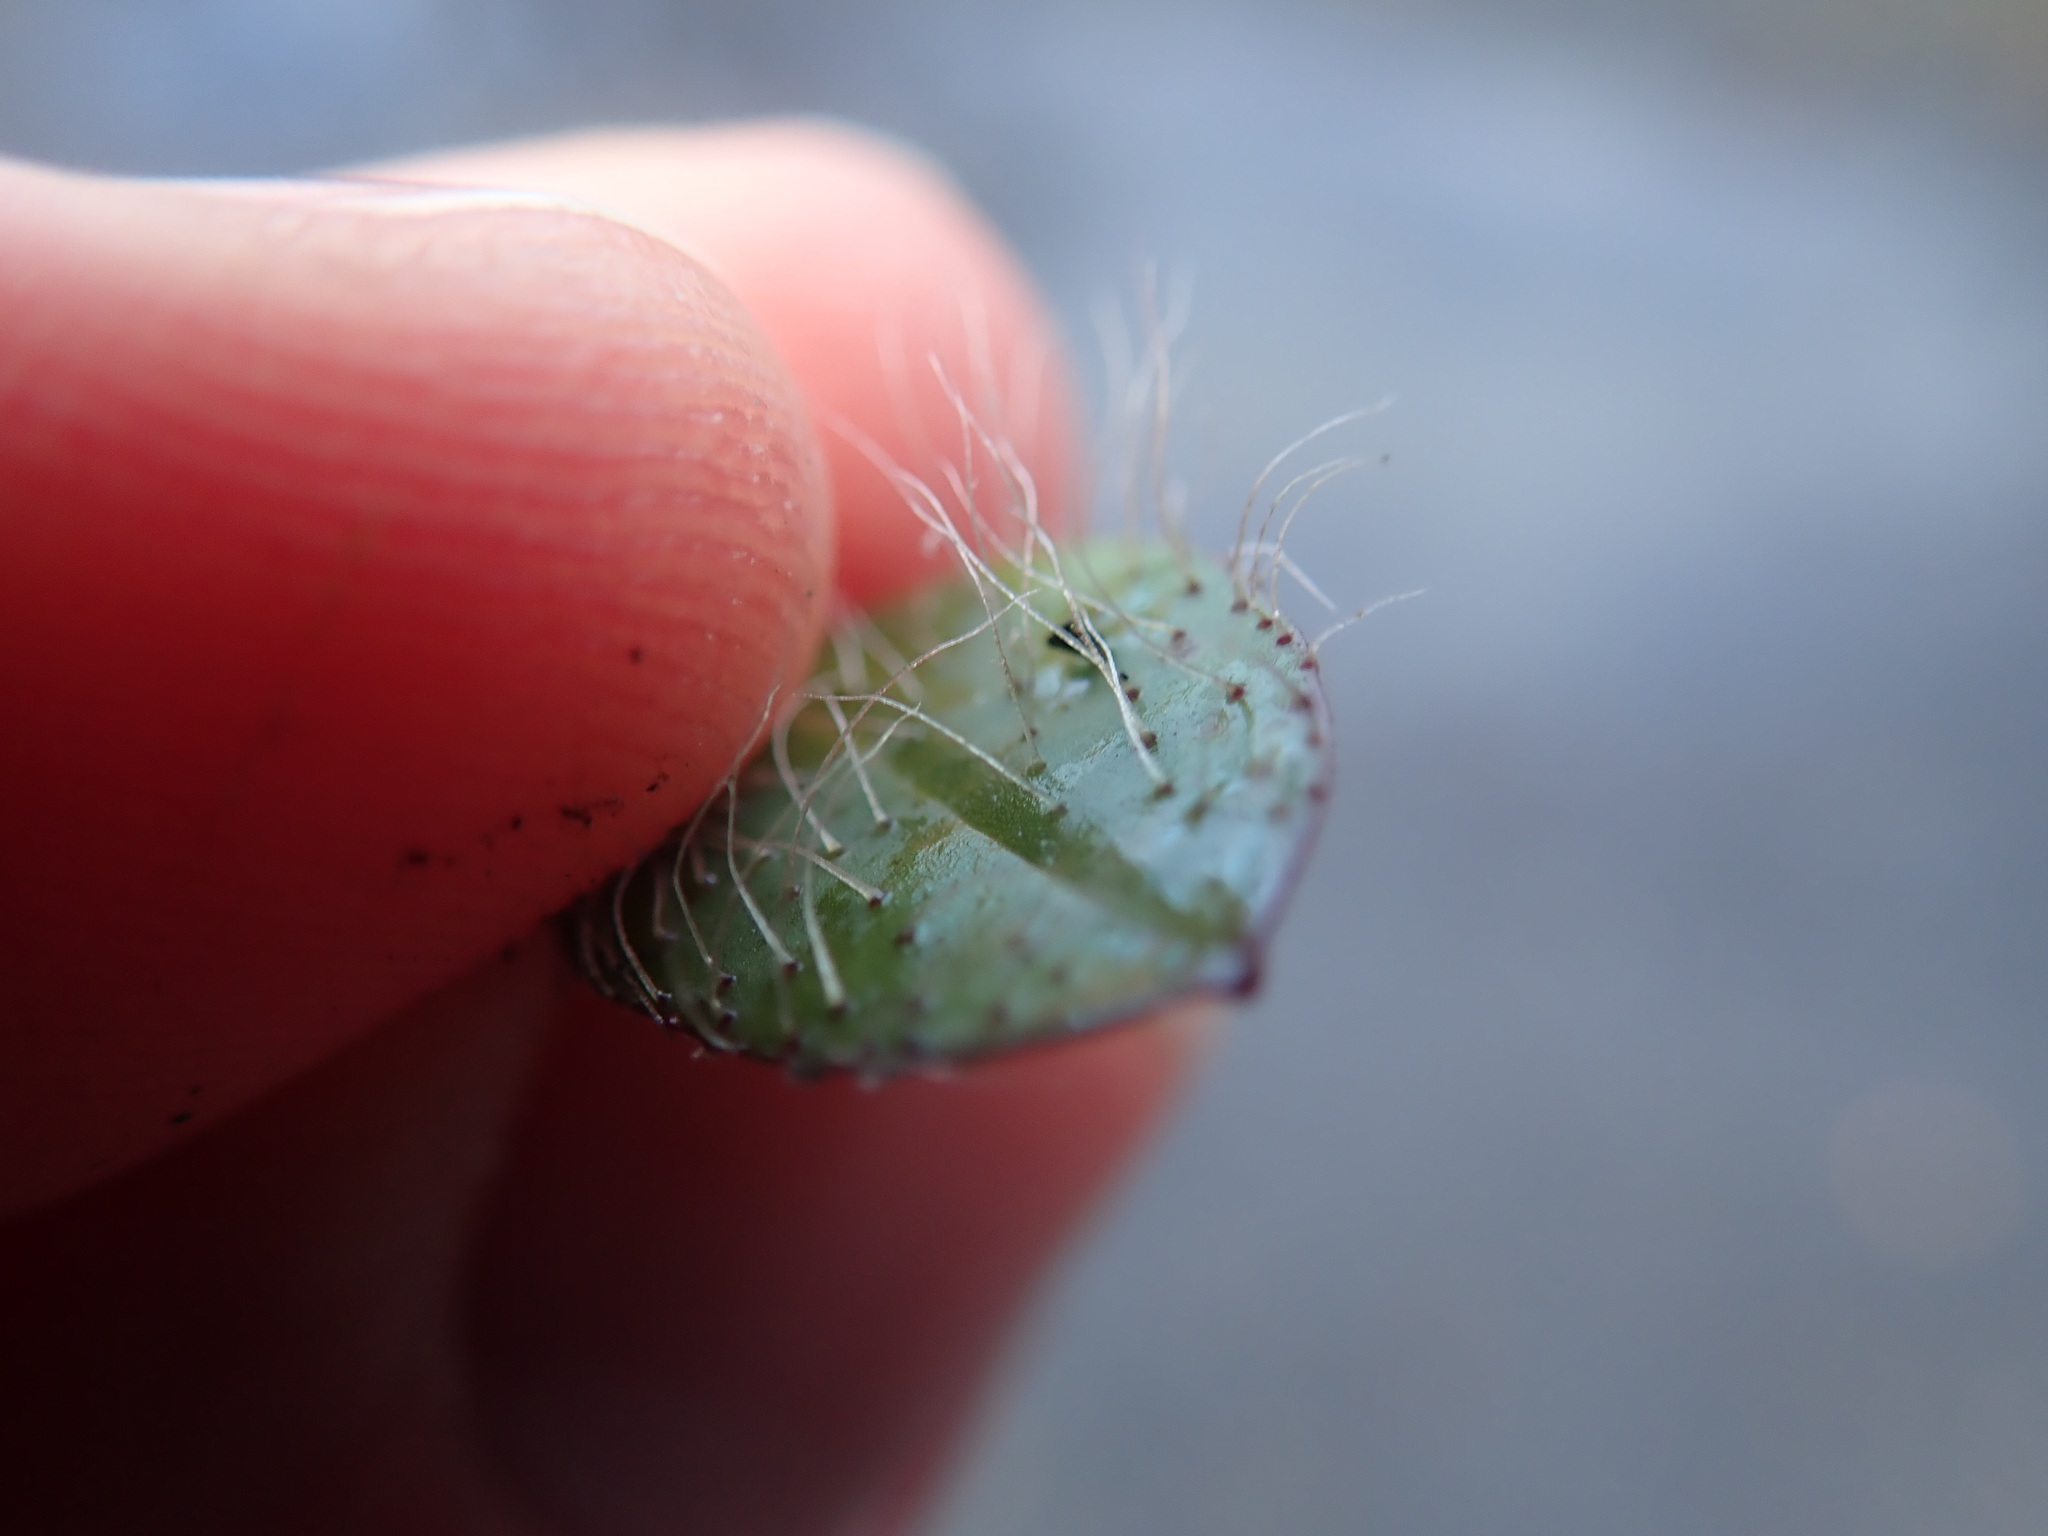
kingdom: Plantae
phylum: Tracheophyta
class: Magnoliopsida
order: Asterales
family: Asteraceae
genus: Pilosella
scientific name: Pilosella
